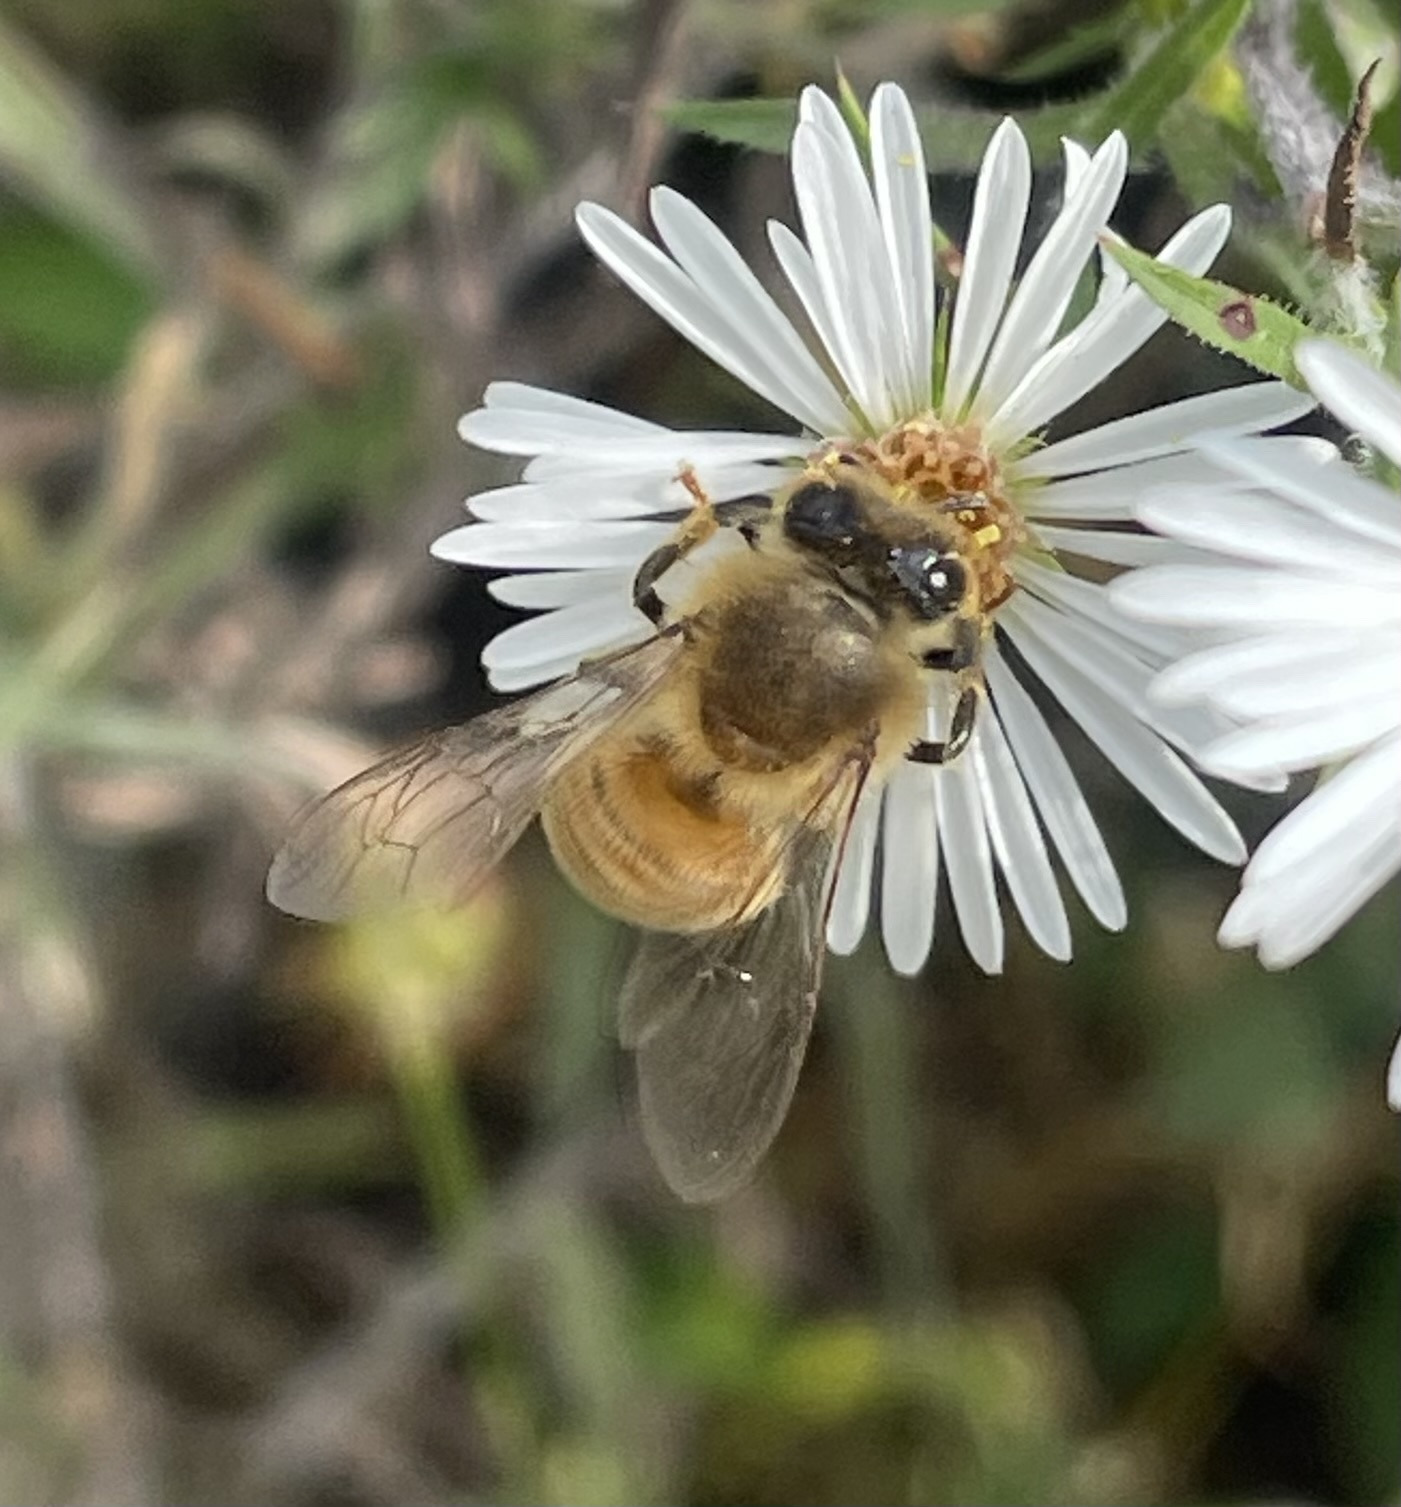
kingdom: Animalia
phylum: Arthropoda
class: Insecta
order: Hymenoptera
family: Apidae
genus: Apis
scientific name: Apis mellifera
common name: Honey bee
